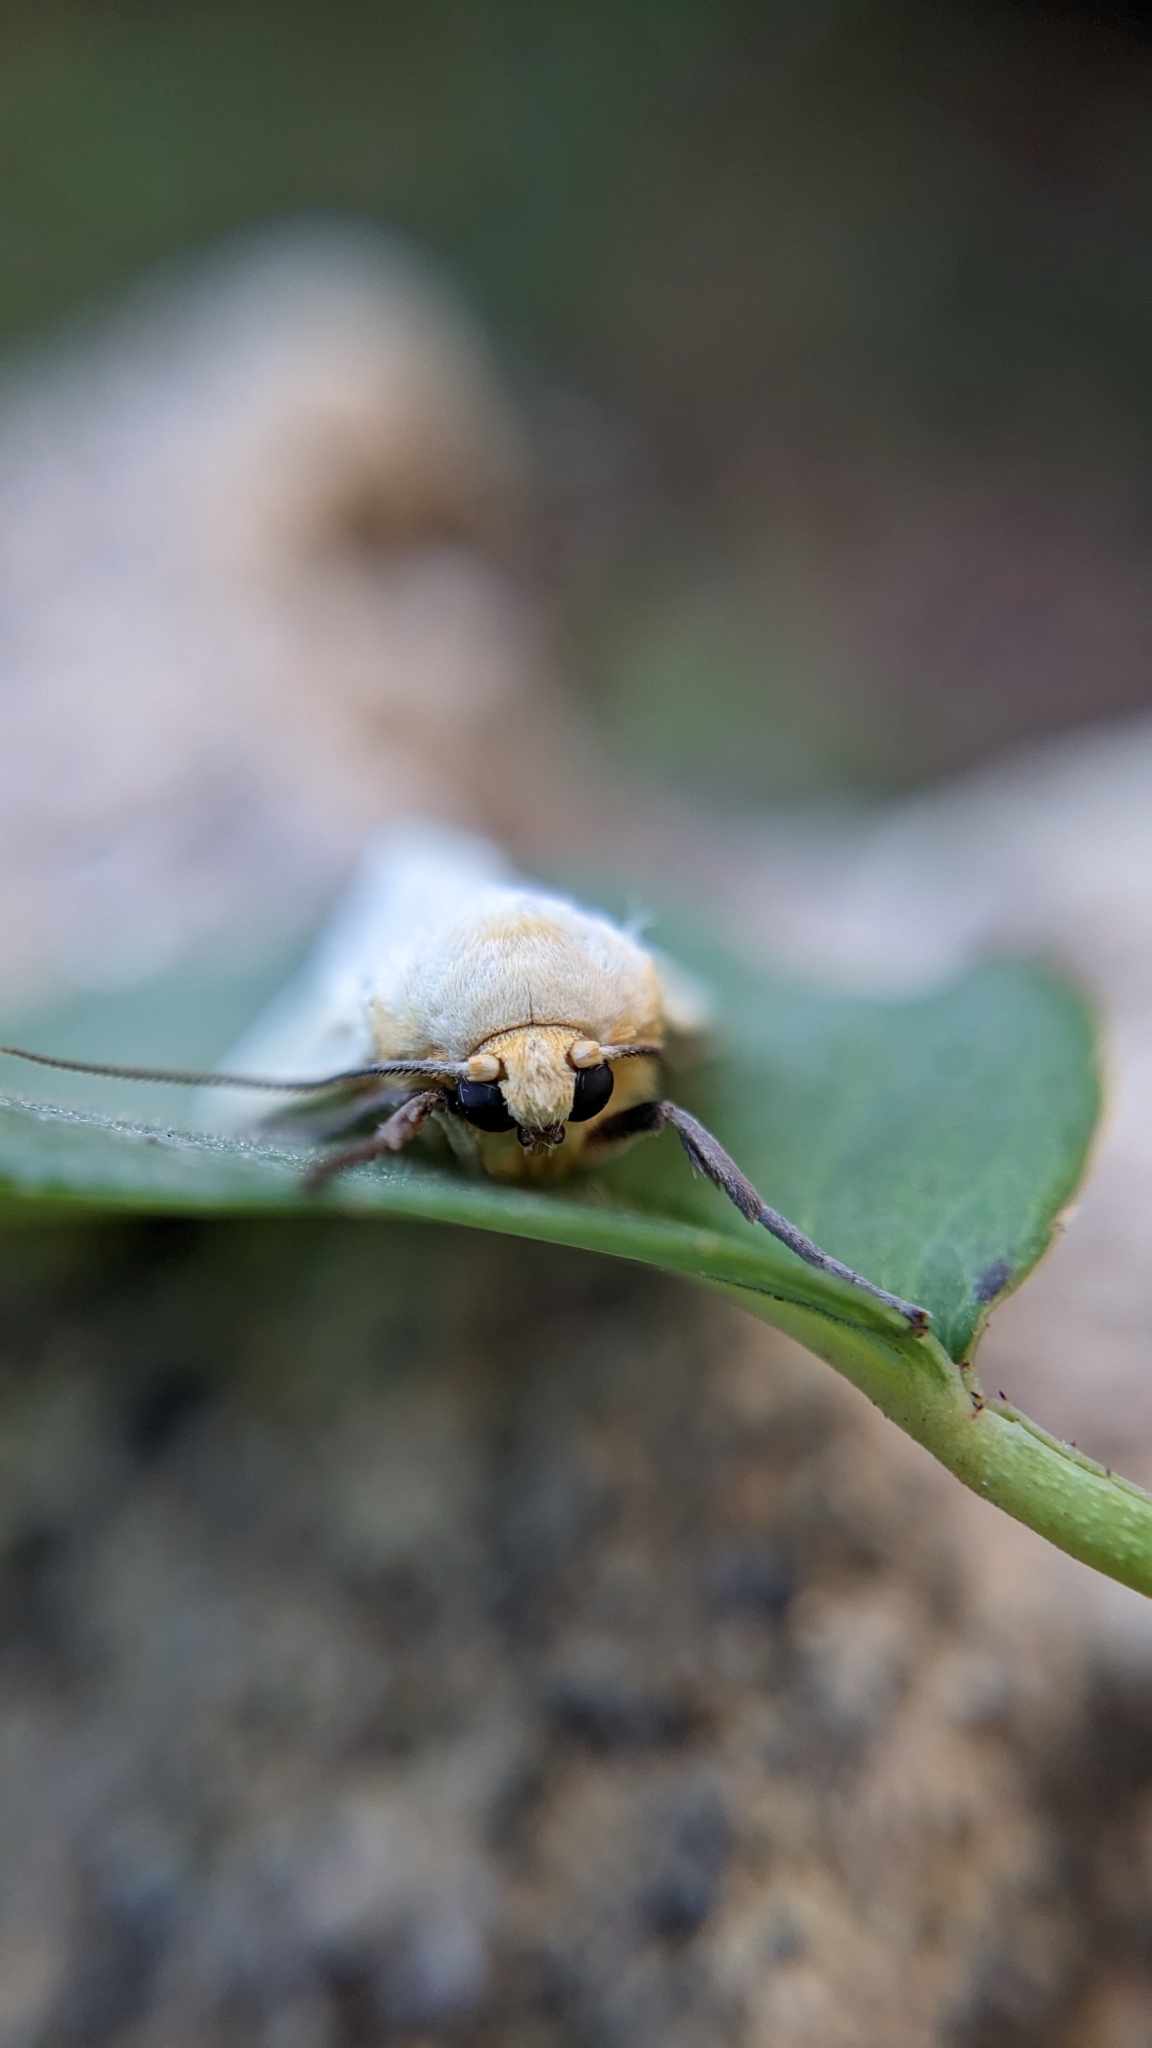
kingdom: Animalia
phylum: Arthropoda
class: Insecta
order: Lepidoptera
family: Erebidae
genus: Pareuchaetes
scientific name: Pareuchaetes pseudoinsulata
